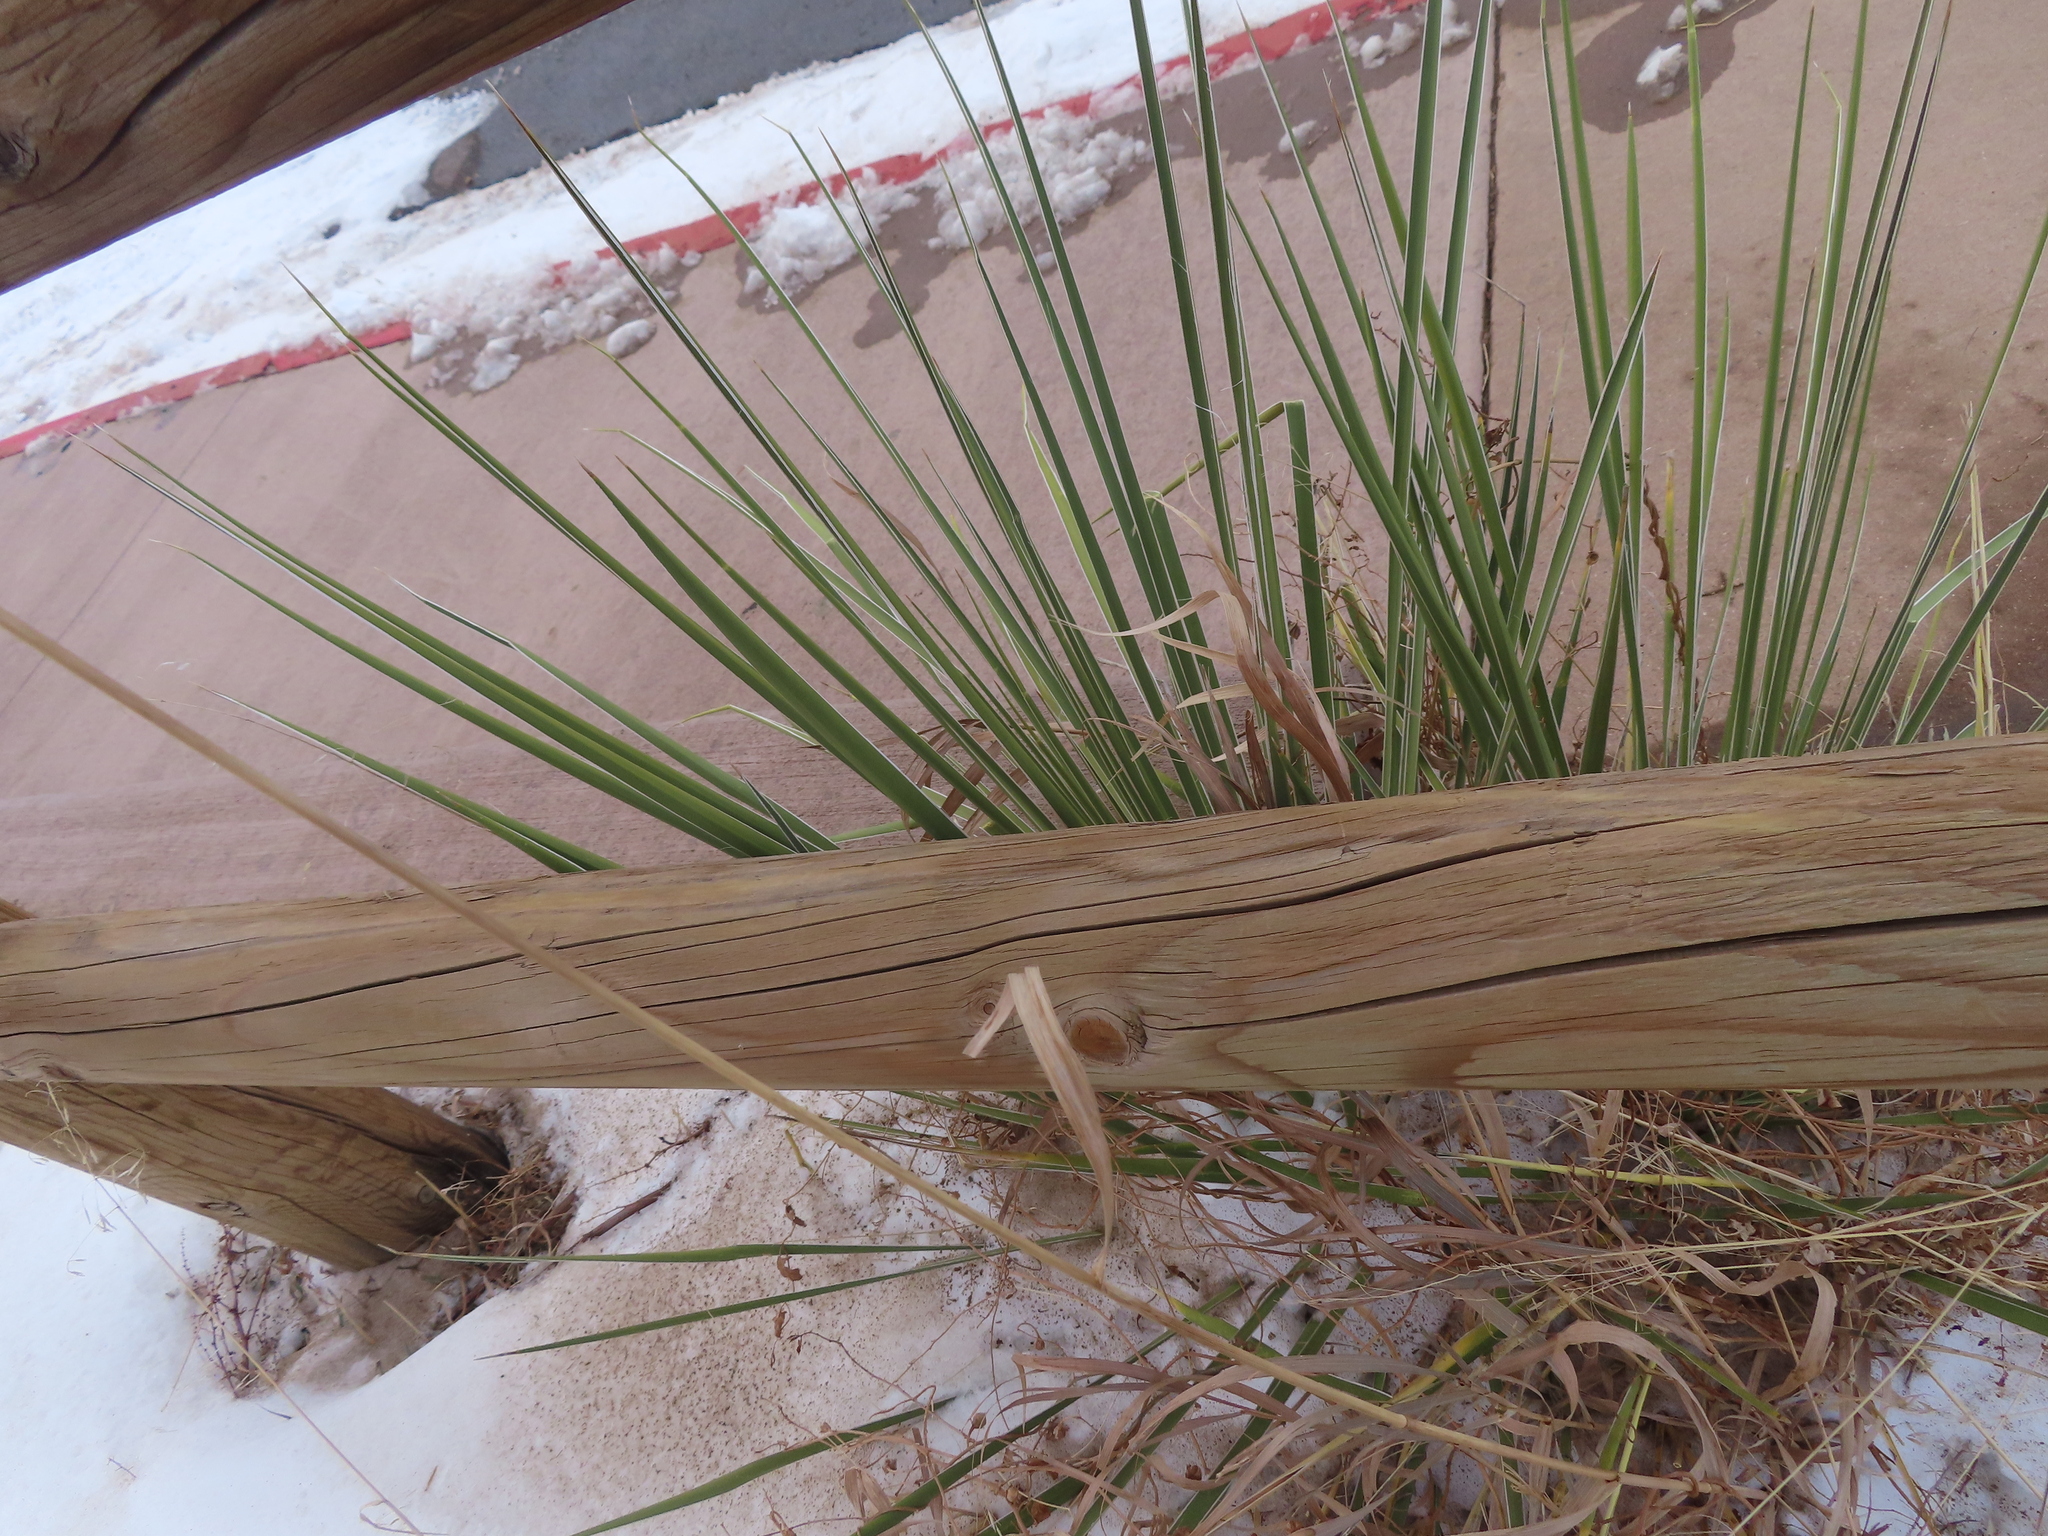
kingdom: Plantae
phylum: Tracheophyta
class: Liliopsida
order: Asparagales
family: Asparagaceae
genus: Yucca
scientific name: Yucca glauca
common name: Great plains yucca
